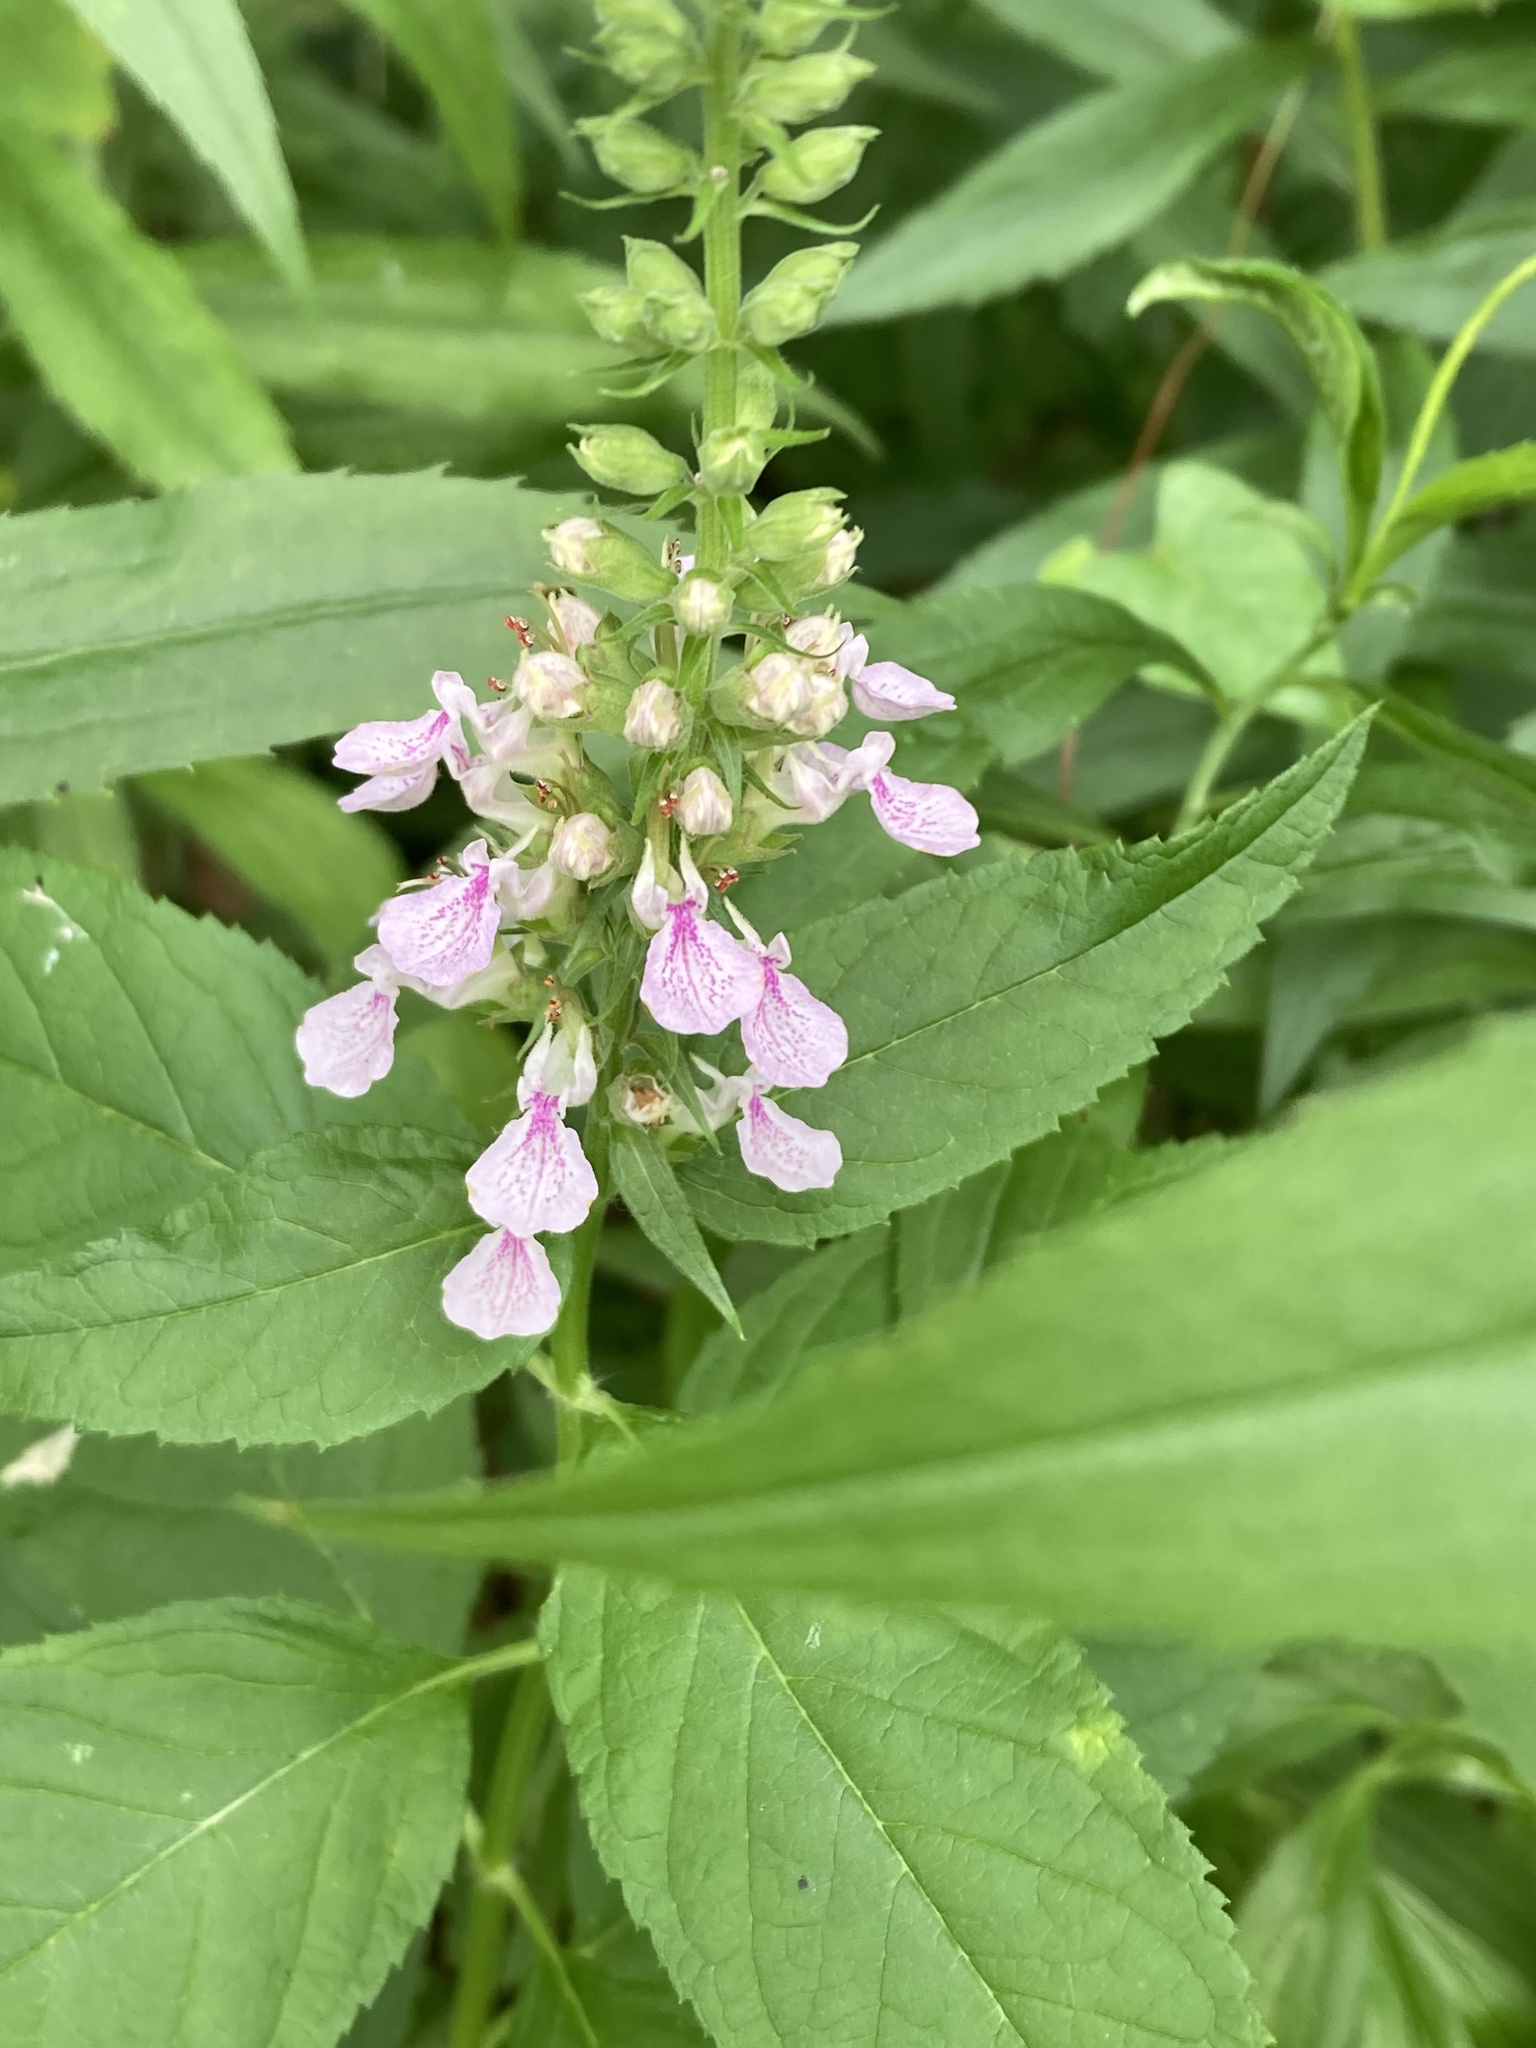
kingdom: Plantae
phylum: Tracheophyta
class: Magnoliopsida
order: Lamiales
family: Lamiaceae
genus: Teucrium
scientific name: Teucrium canadense
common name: American germander
